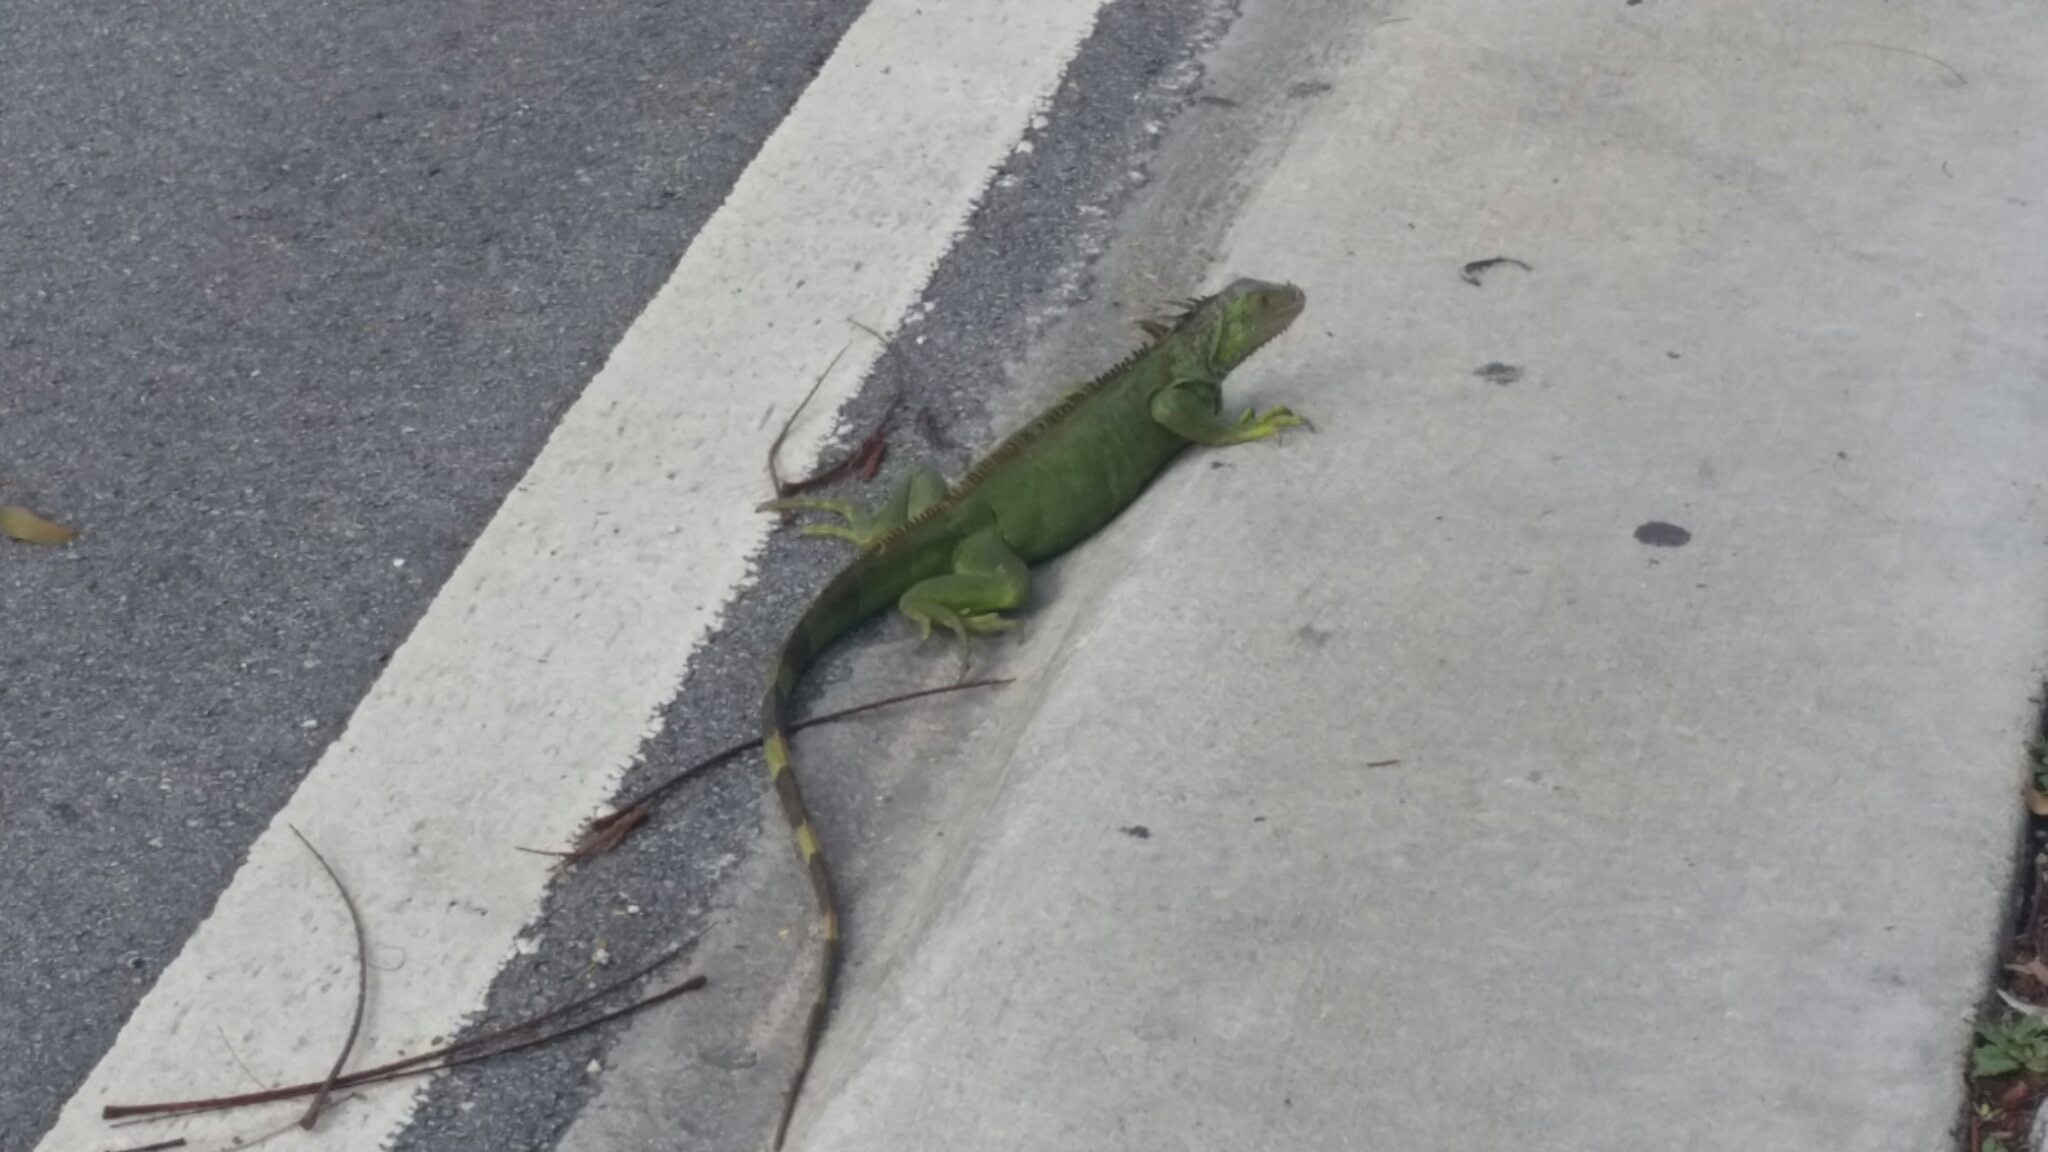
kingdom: Animalia
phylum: Chordata
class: Squamata
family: Iguanidae
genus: Iguana
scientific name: Iguana iguana
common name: Green iguana
